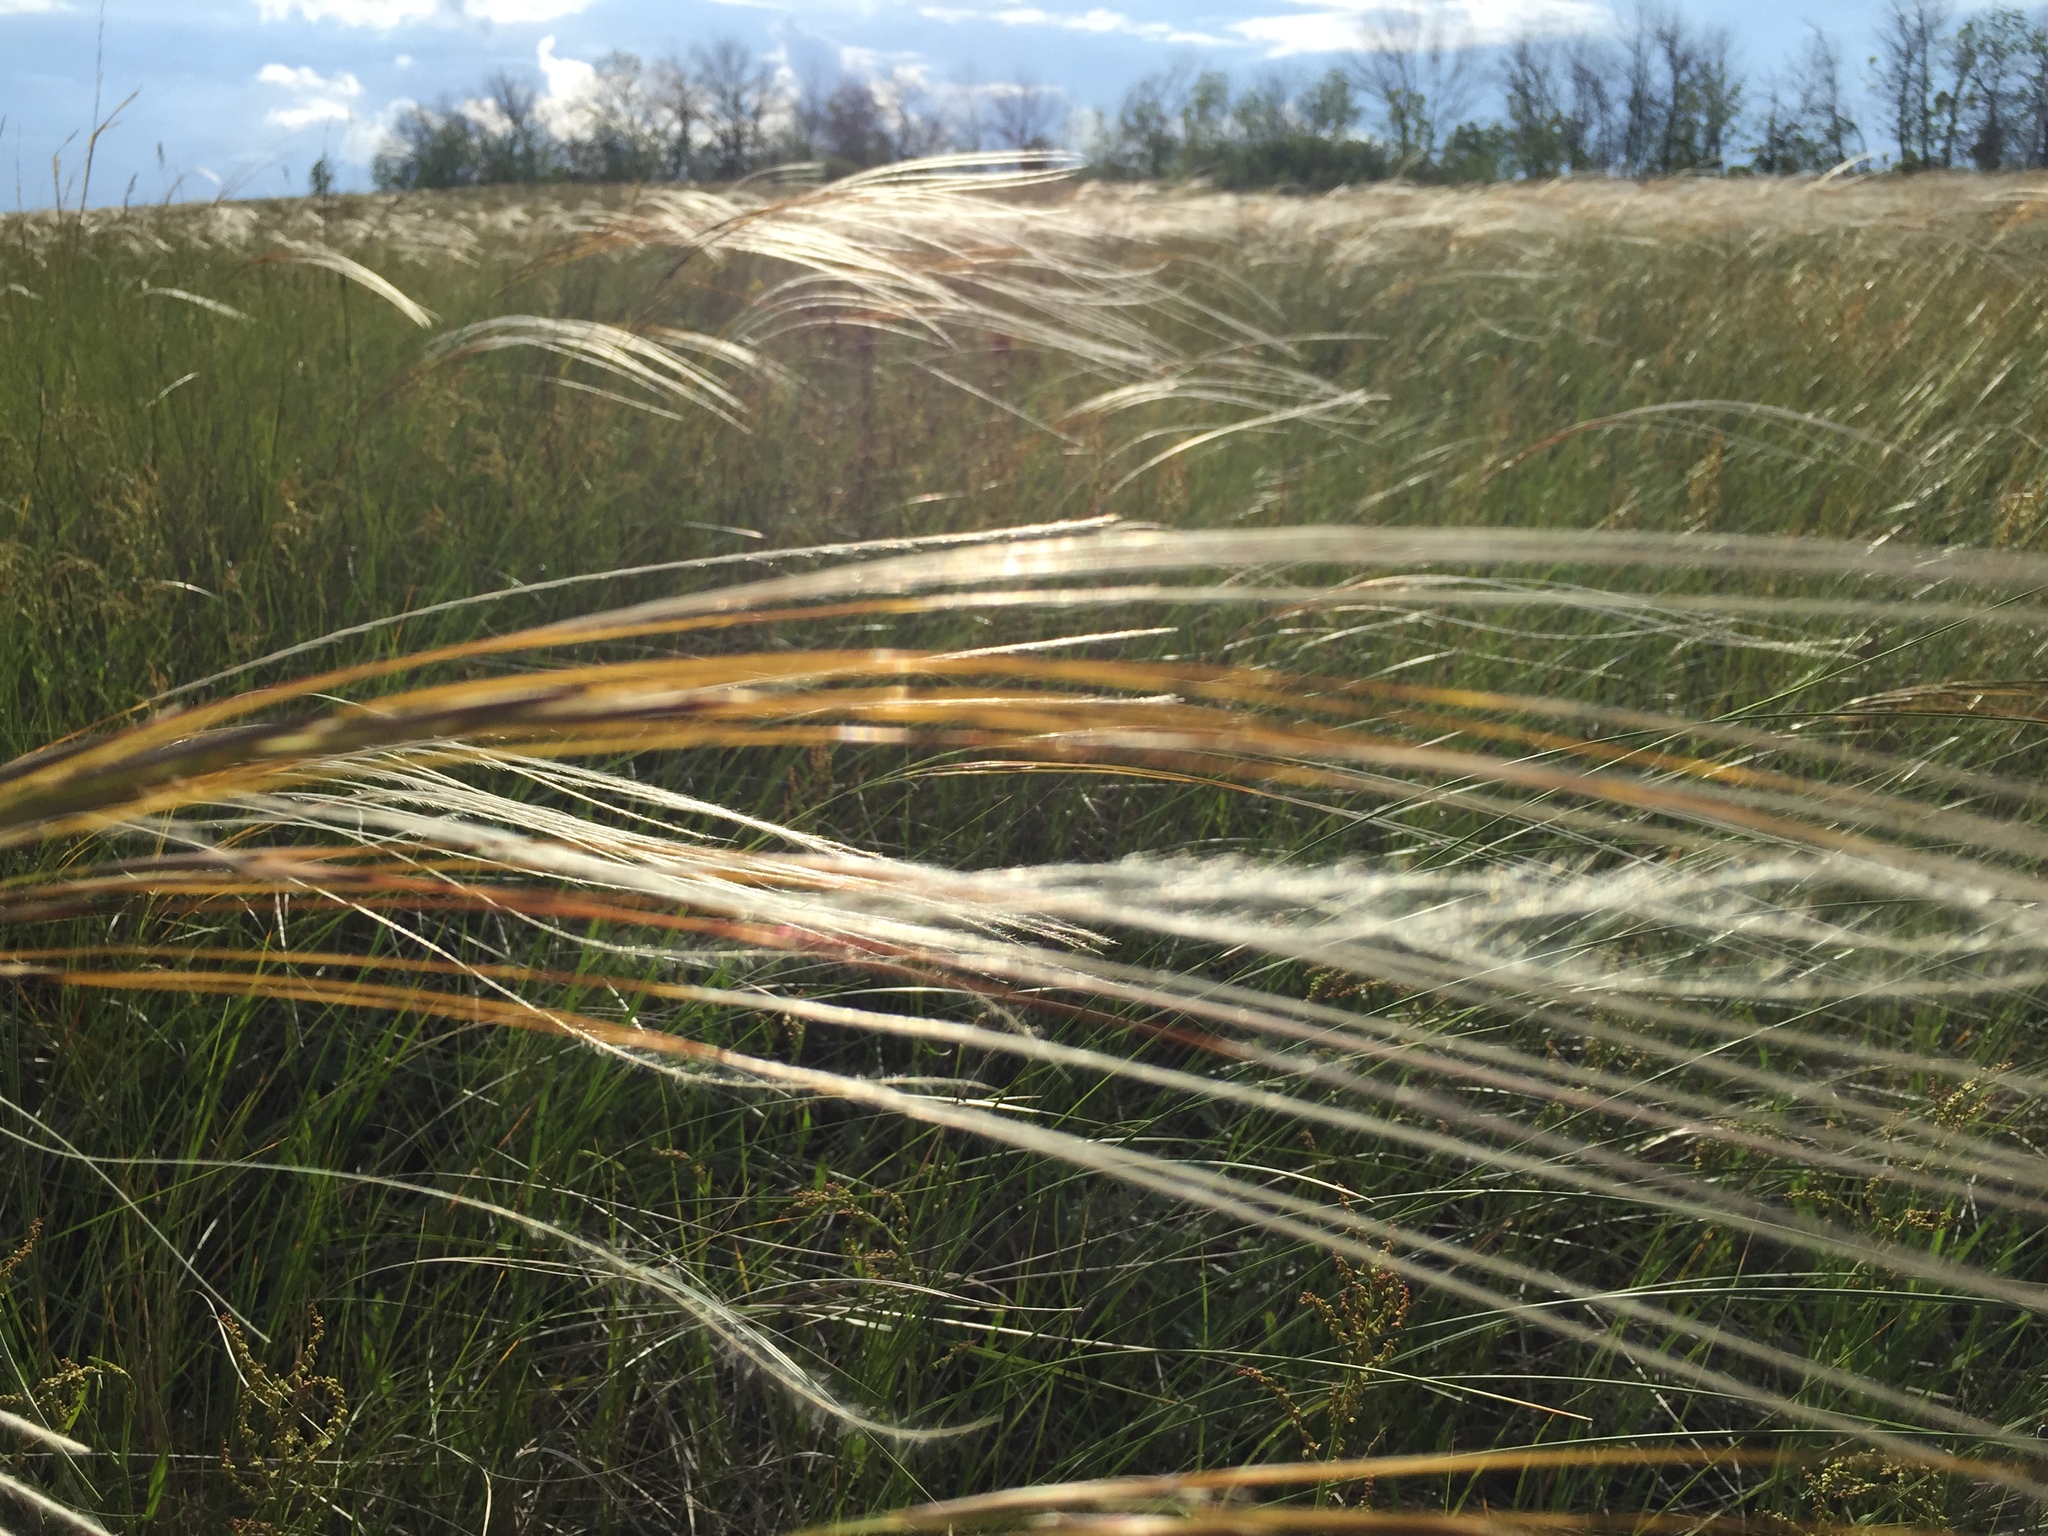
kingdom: Plantae
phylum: Tracheophyta
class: Liliopsida
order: Poales
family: Poaceae
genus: Stipa
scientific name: Stipa pennata
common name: European feather grass
